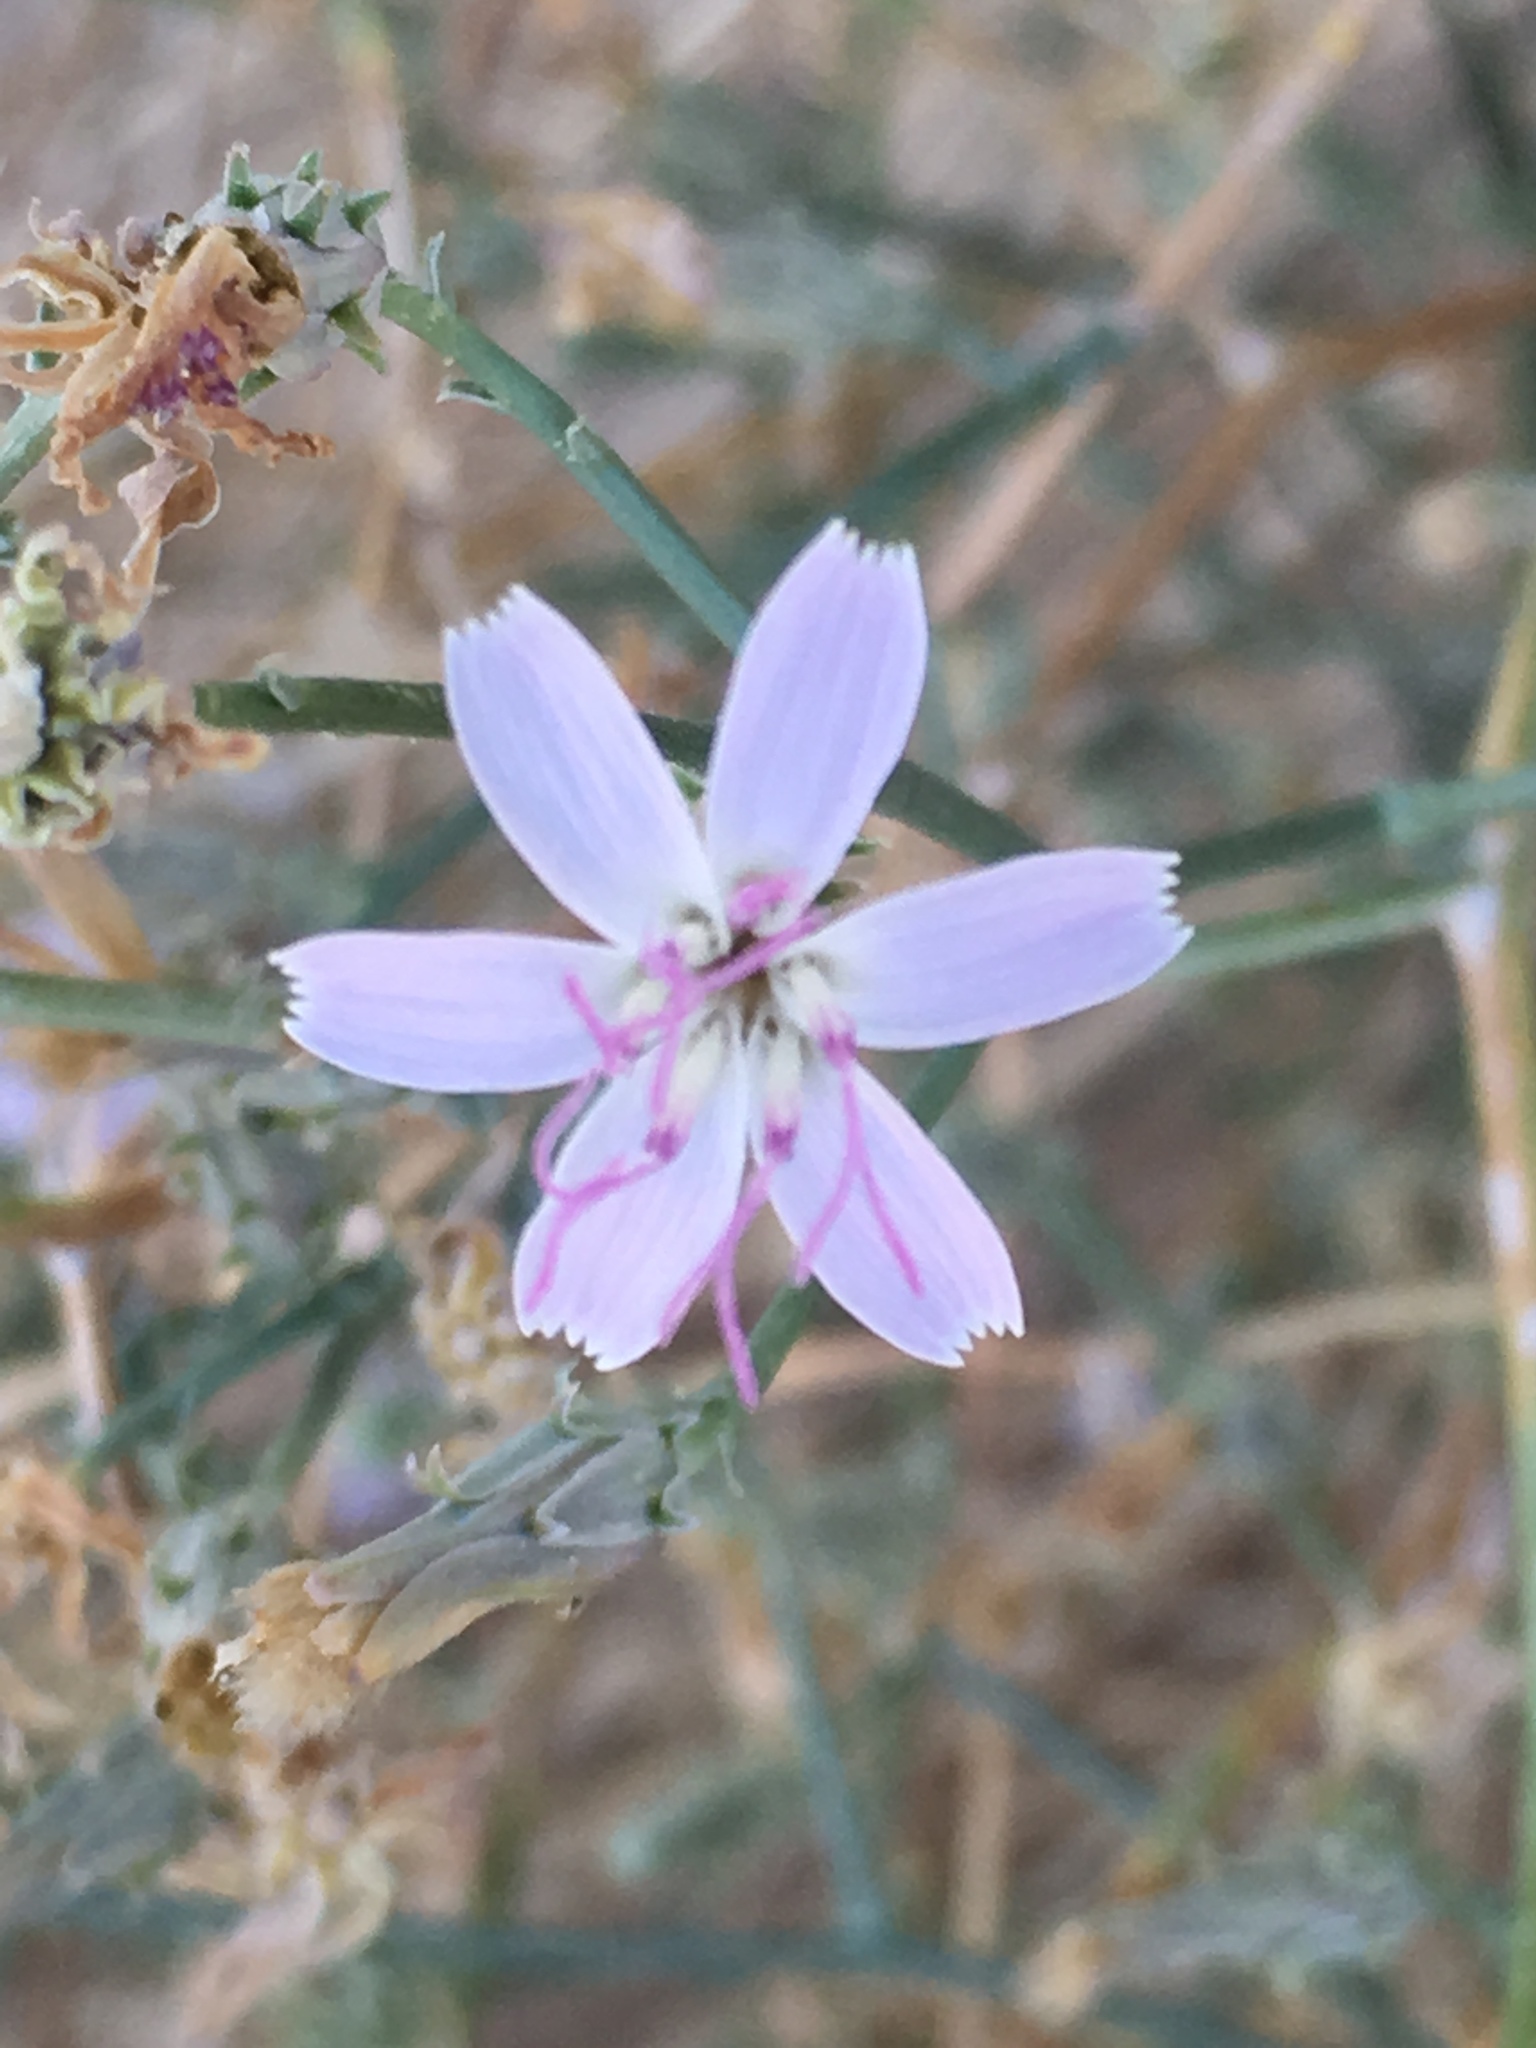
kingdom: Plantae
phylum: Tracheophyta
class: Magnoliopsida
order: Asterales
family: Asteraceae
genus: Stephanomeria
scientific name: Stephanomeria pauciflora
